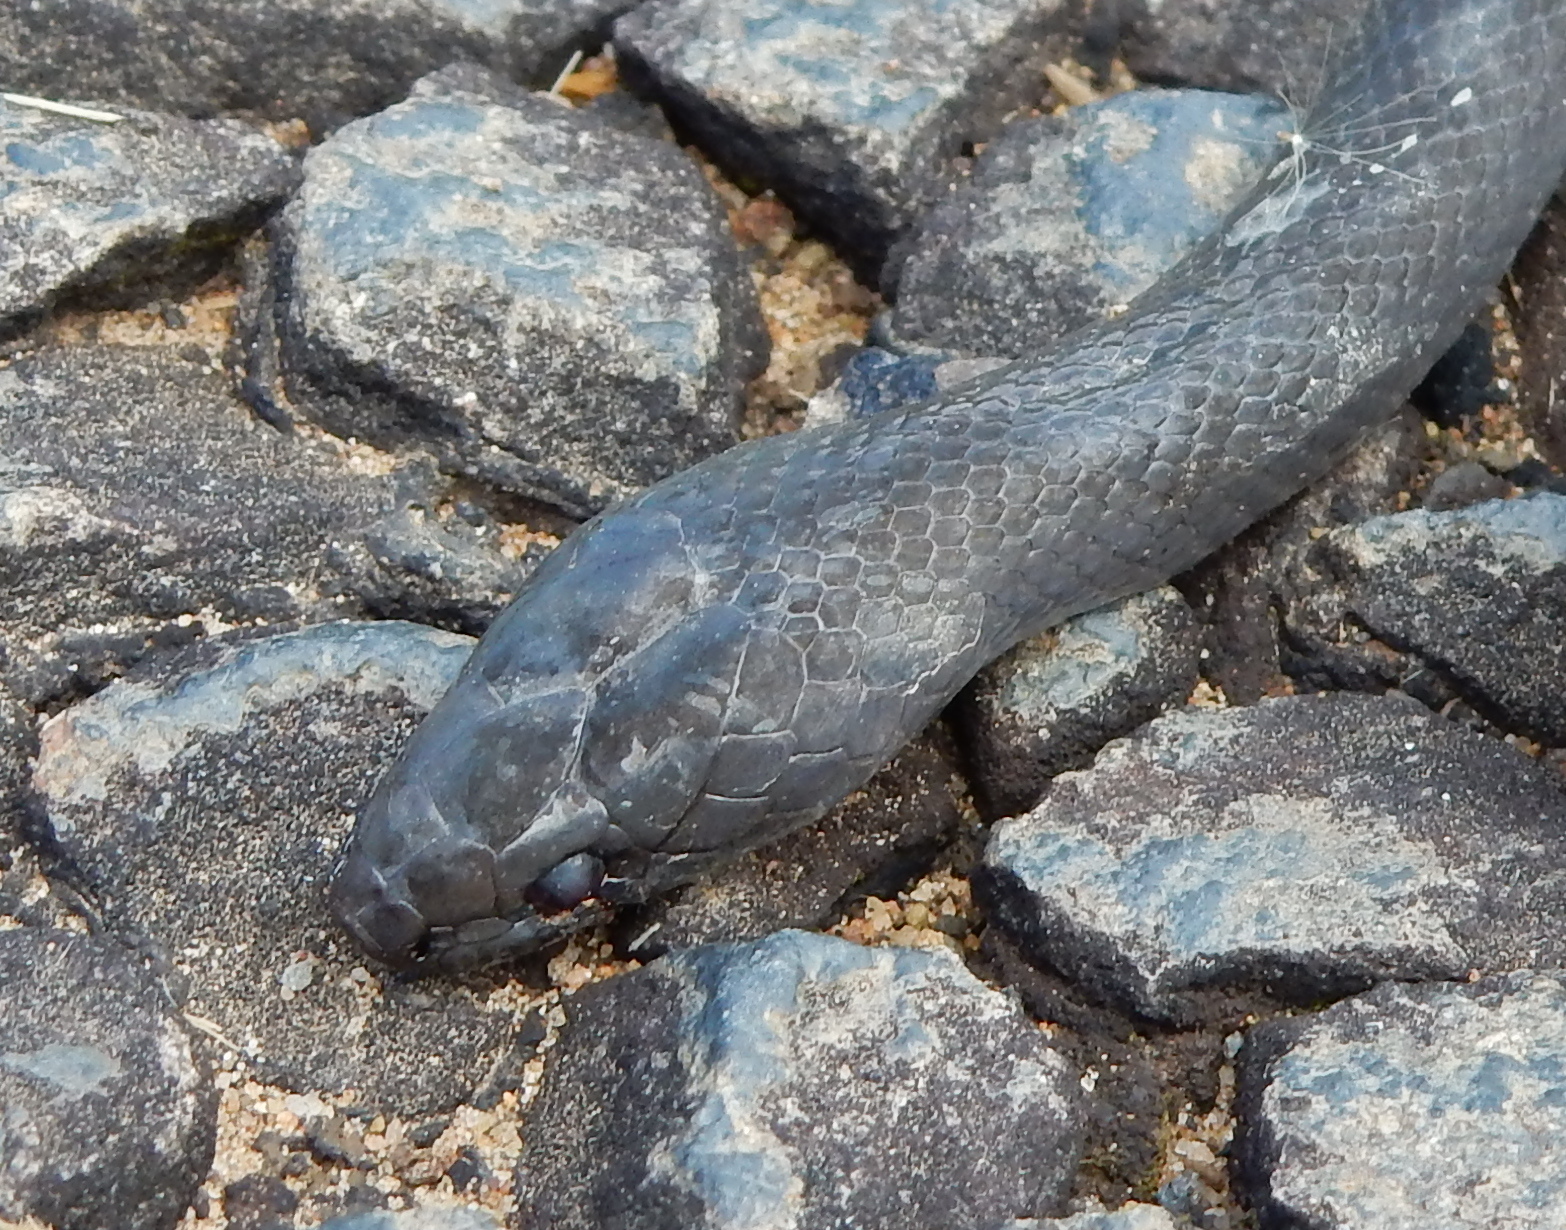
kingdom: Animalia
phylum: Chordata
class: Squamata
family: Lamprophiidae
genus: Lycodonomorphus
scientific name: Lycodonomorphus inornatus
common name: Black house snake
